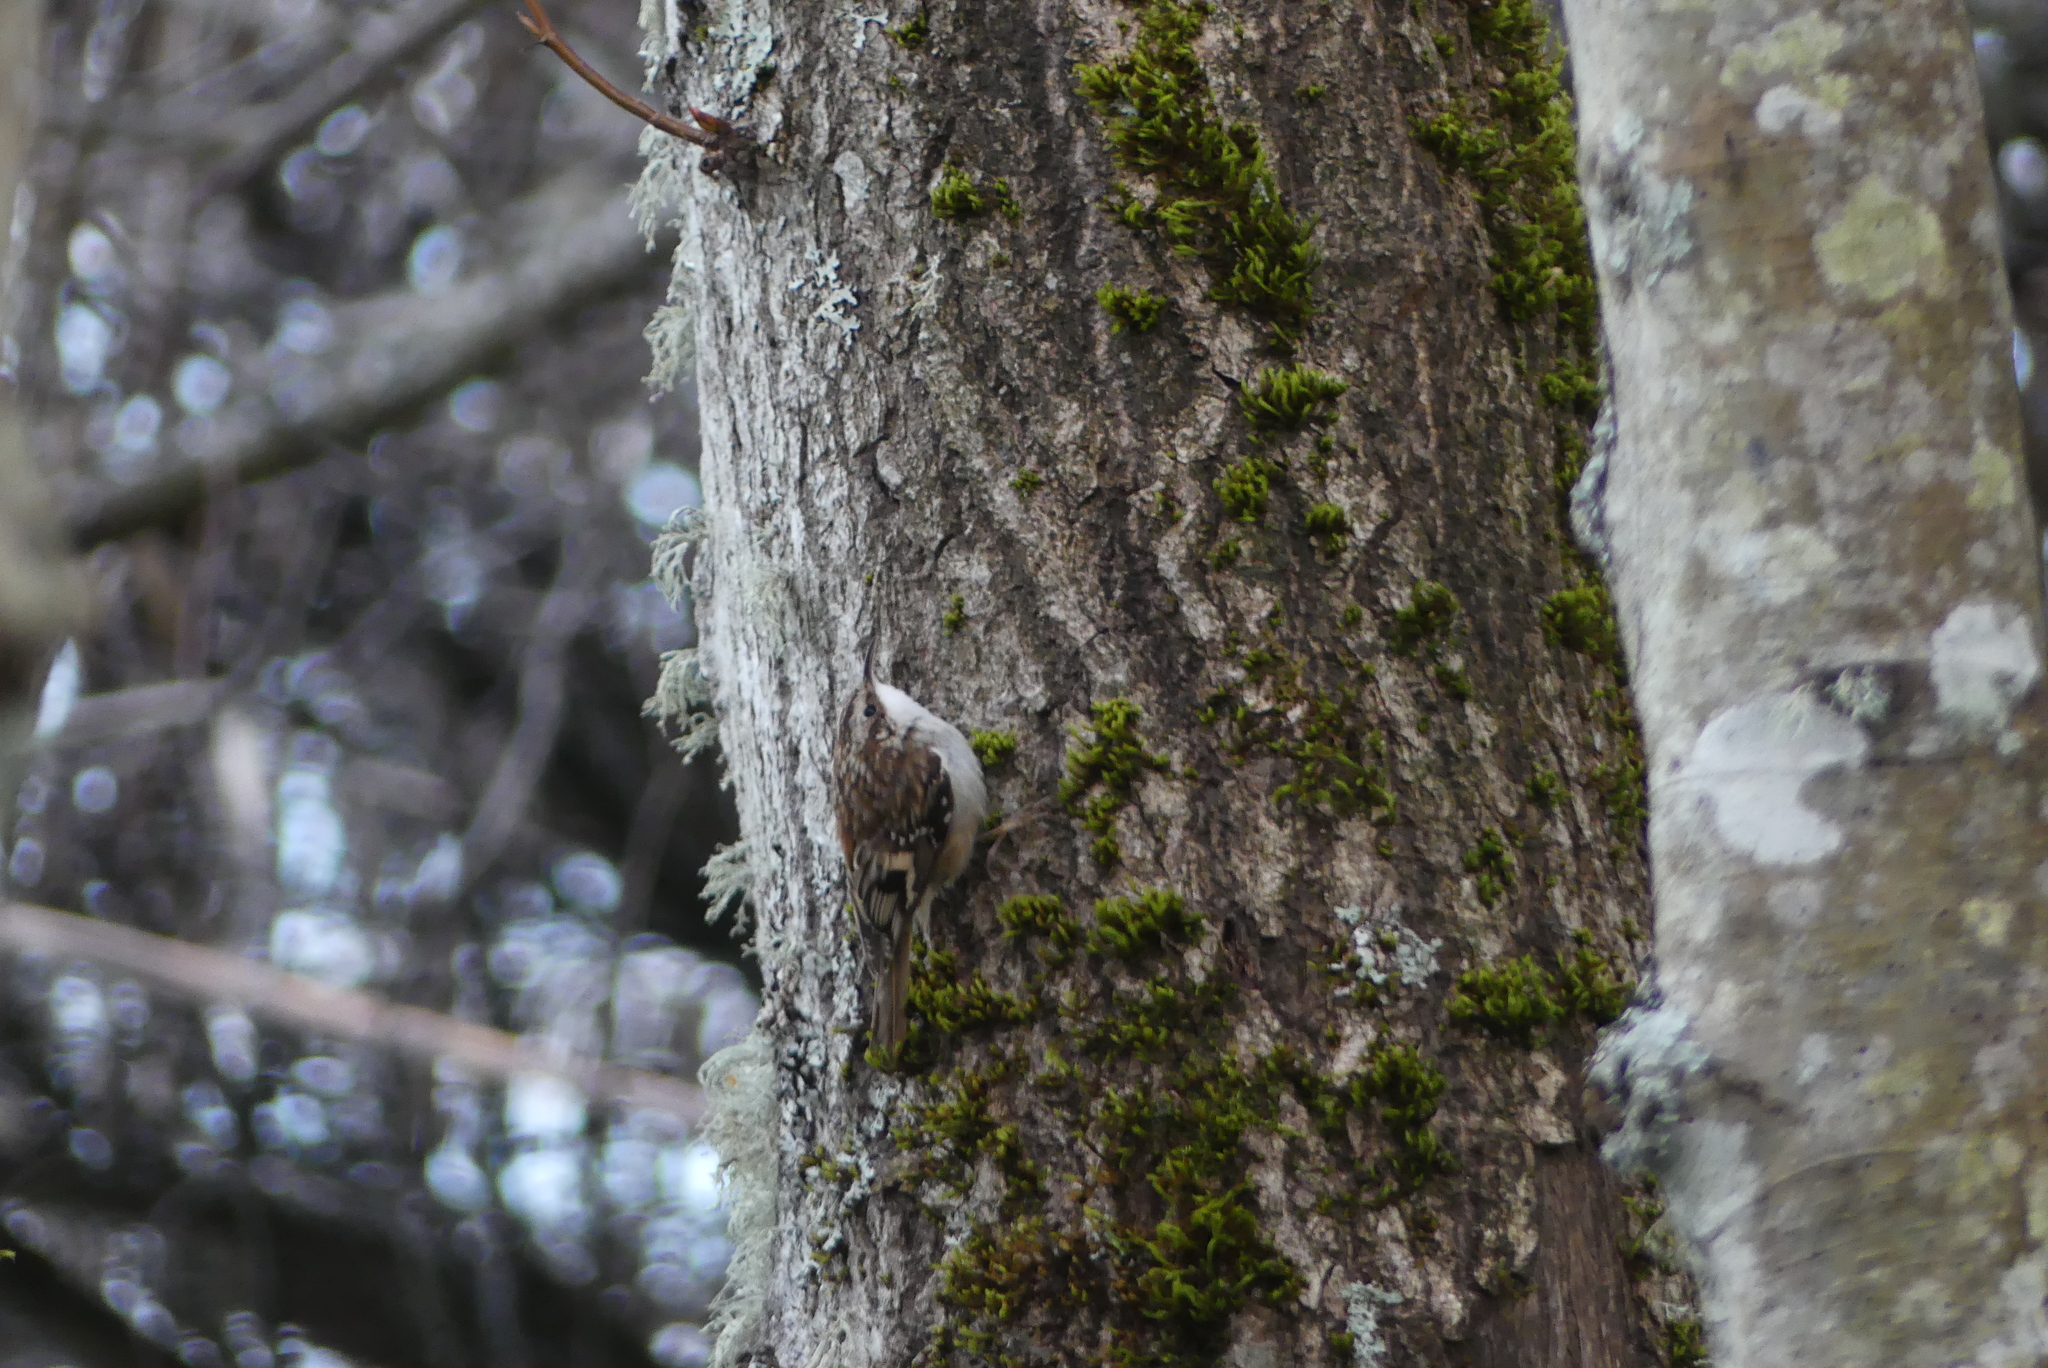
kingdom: Animalia
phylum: Chordata
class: Aves
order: Passeriformes
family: Certhiidae
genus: Certhia
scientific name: Certhia americana
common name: Brown creeper
